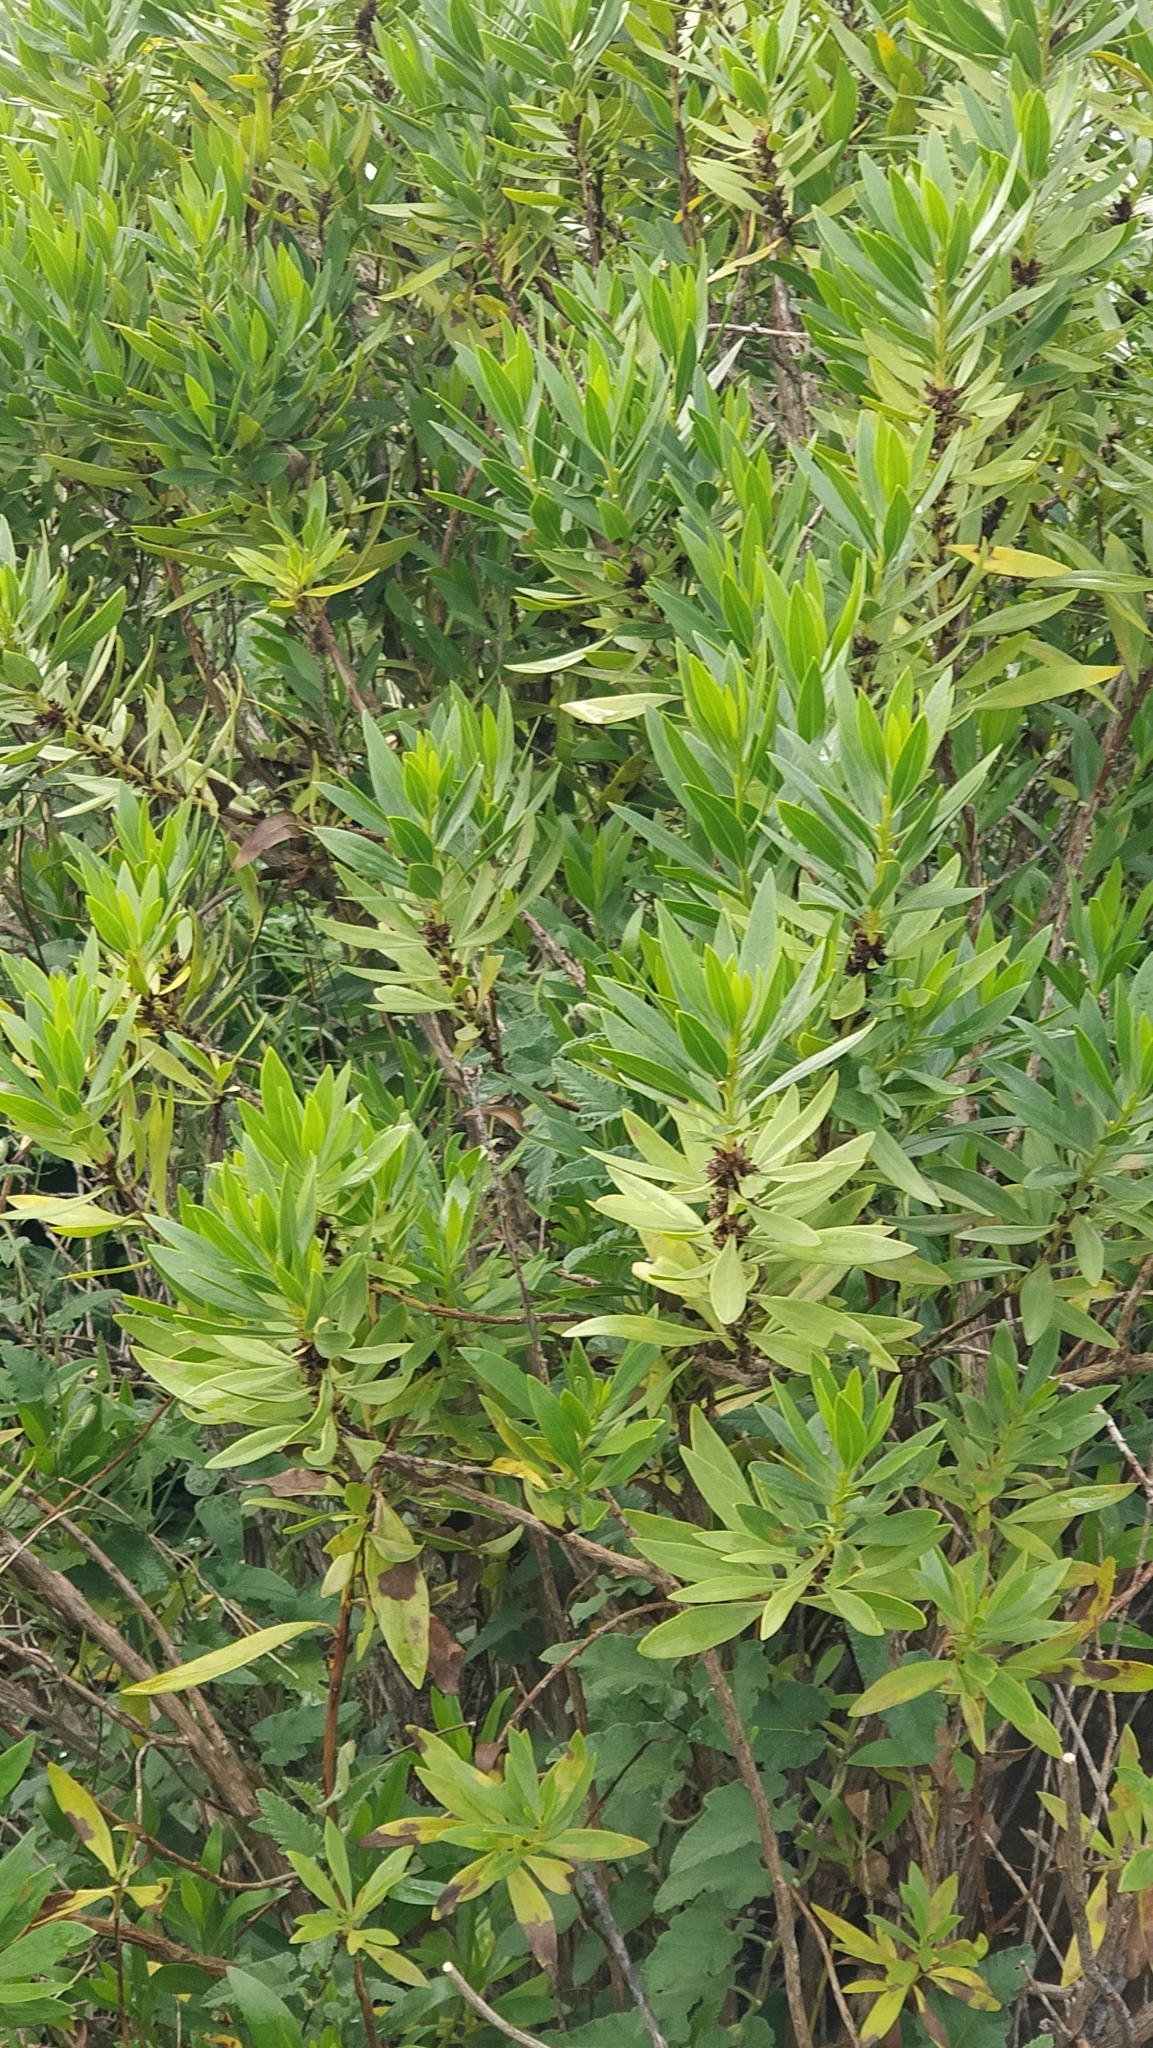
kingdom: Plantae
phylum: Tracheophyta
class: Magnoliopsida
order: Lamiales
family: Plantaginaceae
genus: Globularia
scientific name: Globularia salicina
